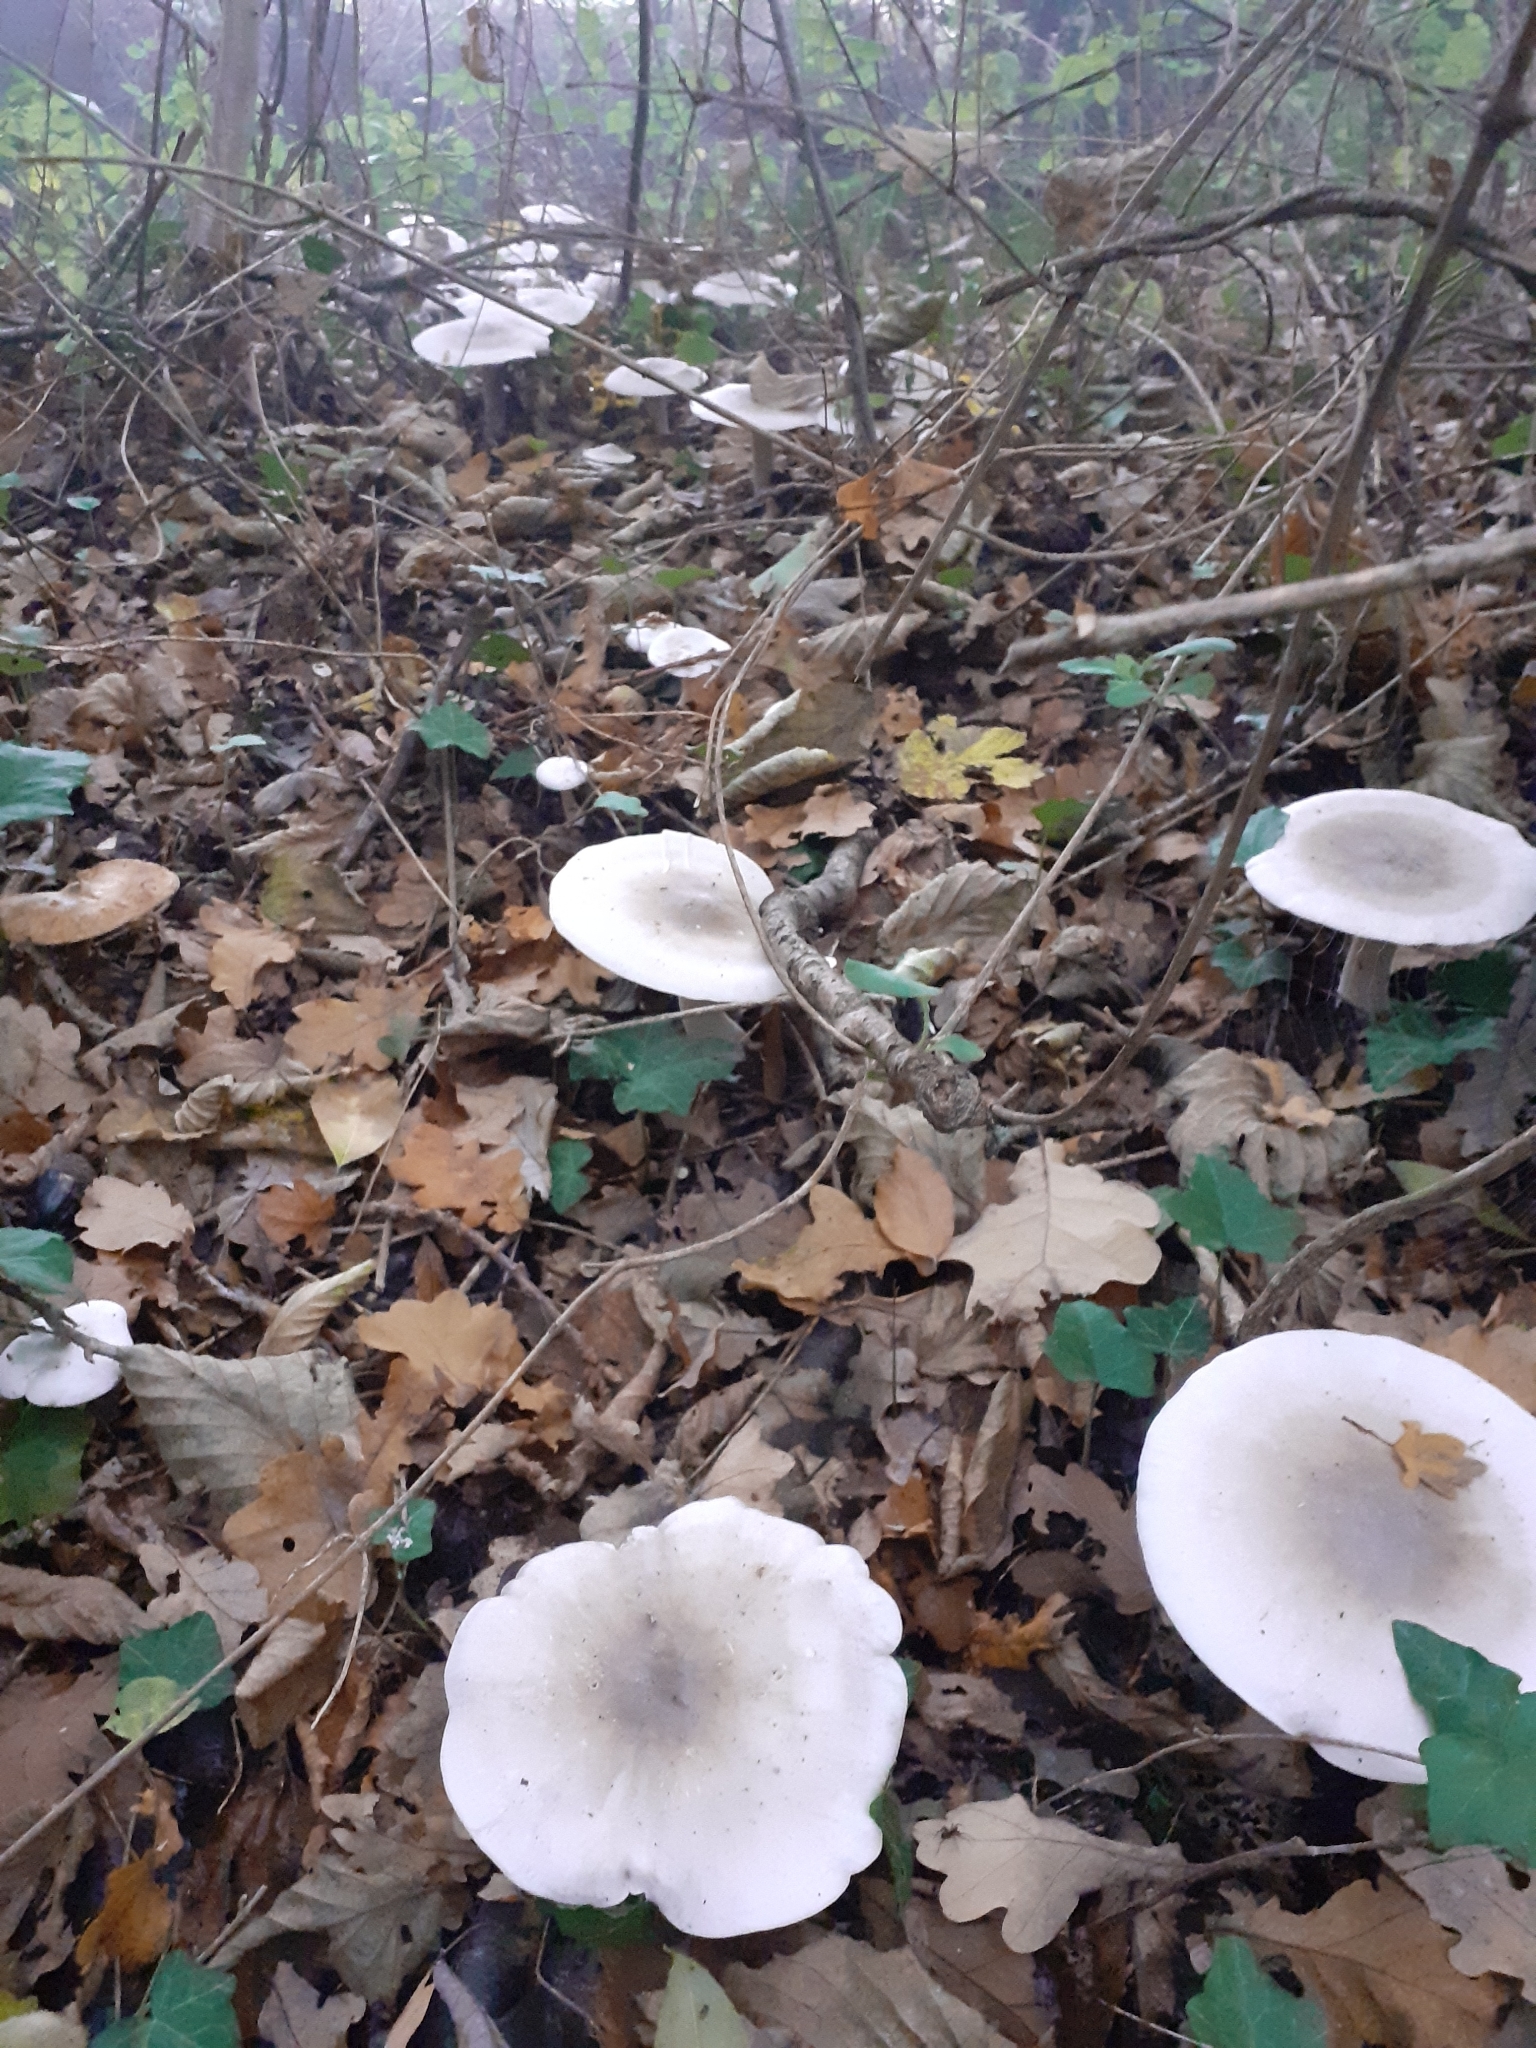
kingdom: Fungi
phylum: Basidiomycota
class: Agaricomycetes
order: Agaricales
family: Tricholomataceae
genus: Clitocybe
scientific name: Clitocybe nebularis
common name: Clouded agaric
